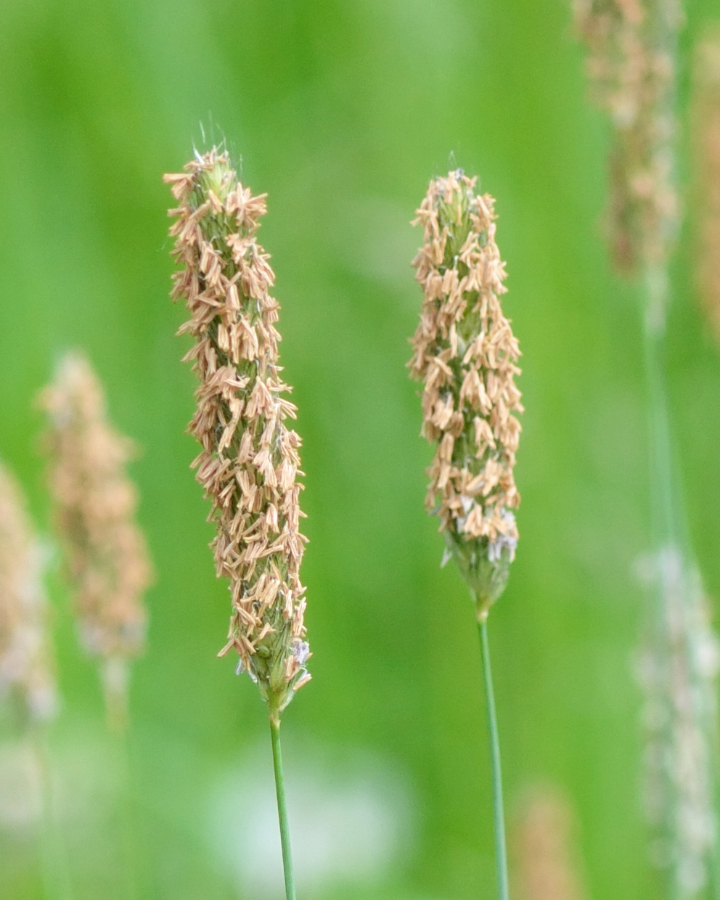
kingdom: Plantae
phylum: Tracheophyta
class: Liliopsida
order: Poales
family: Poaceae
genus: Alopecurus
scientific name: Alopecurus pratensis
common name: Meadow foxtail
